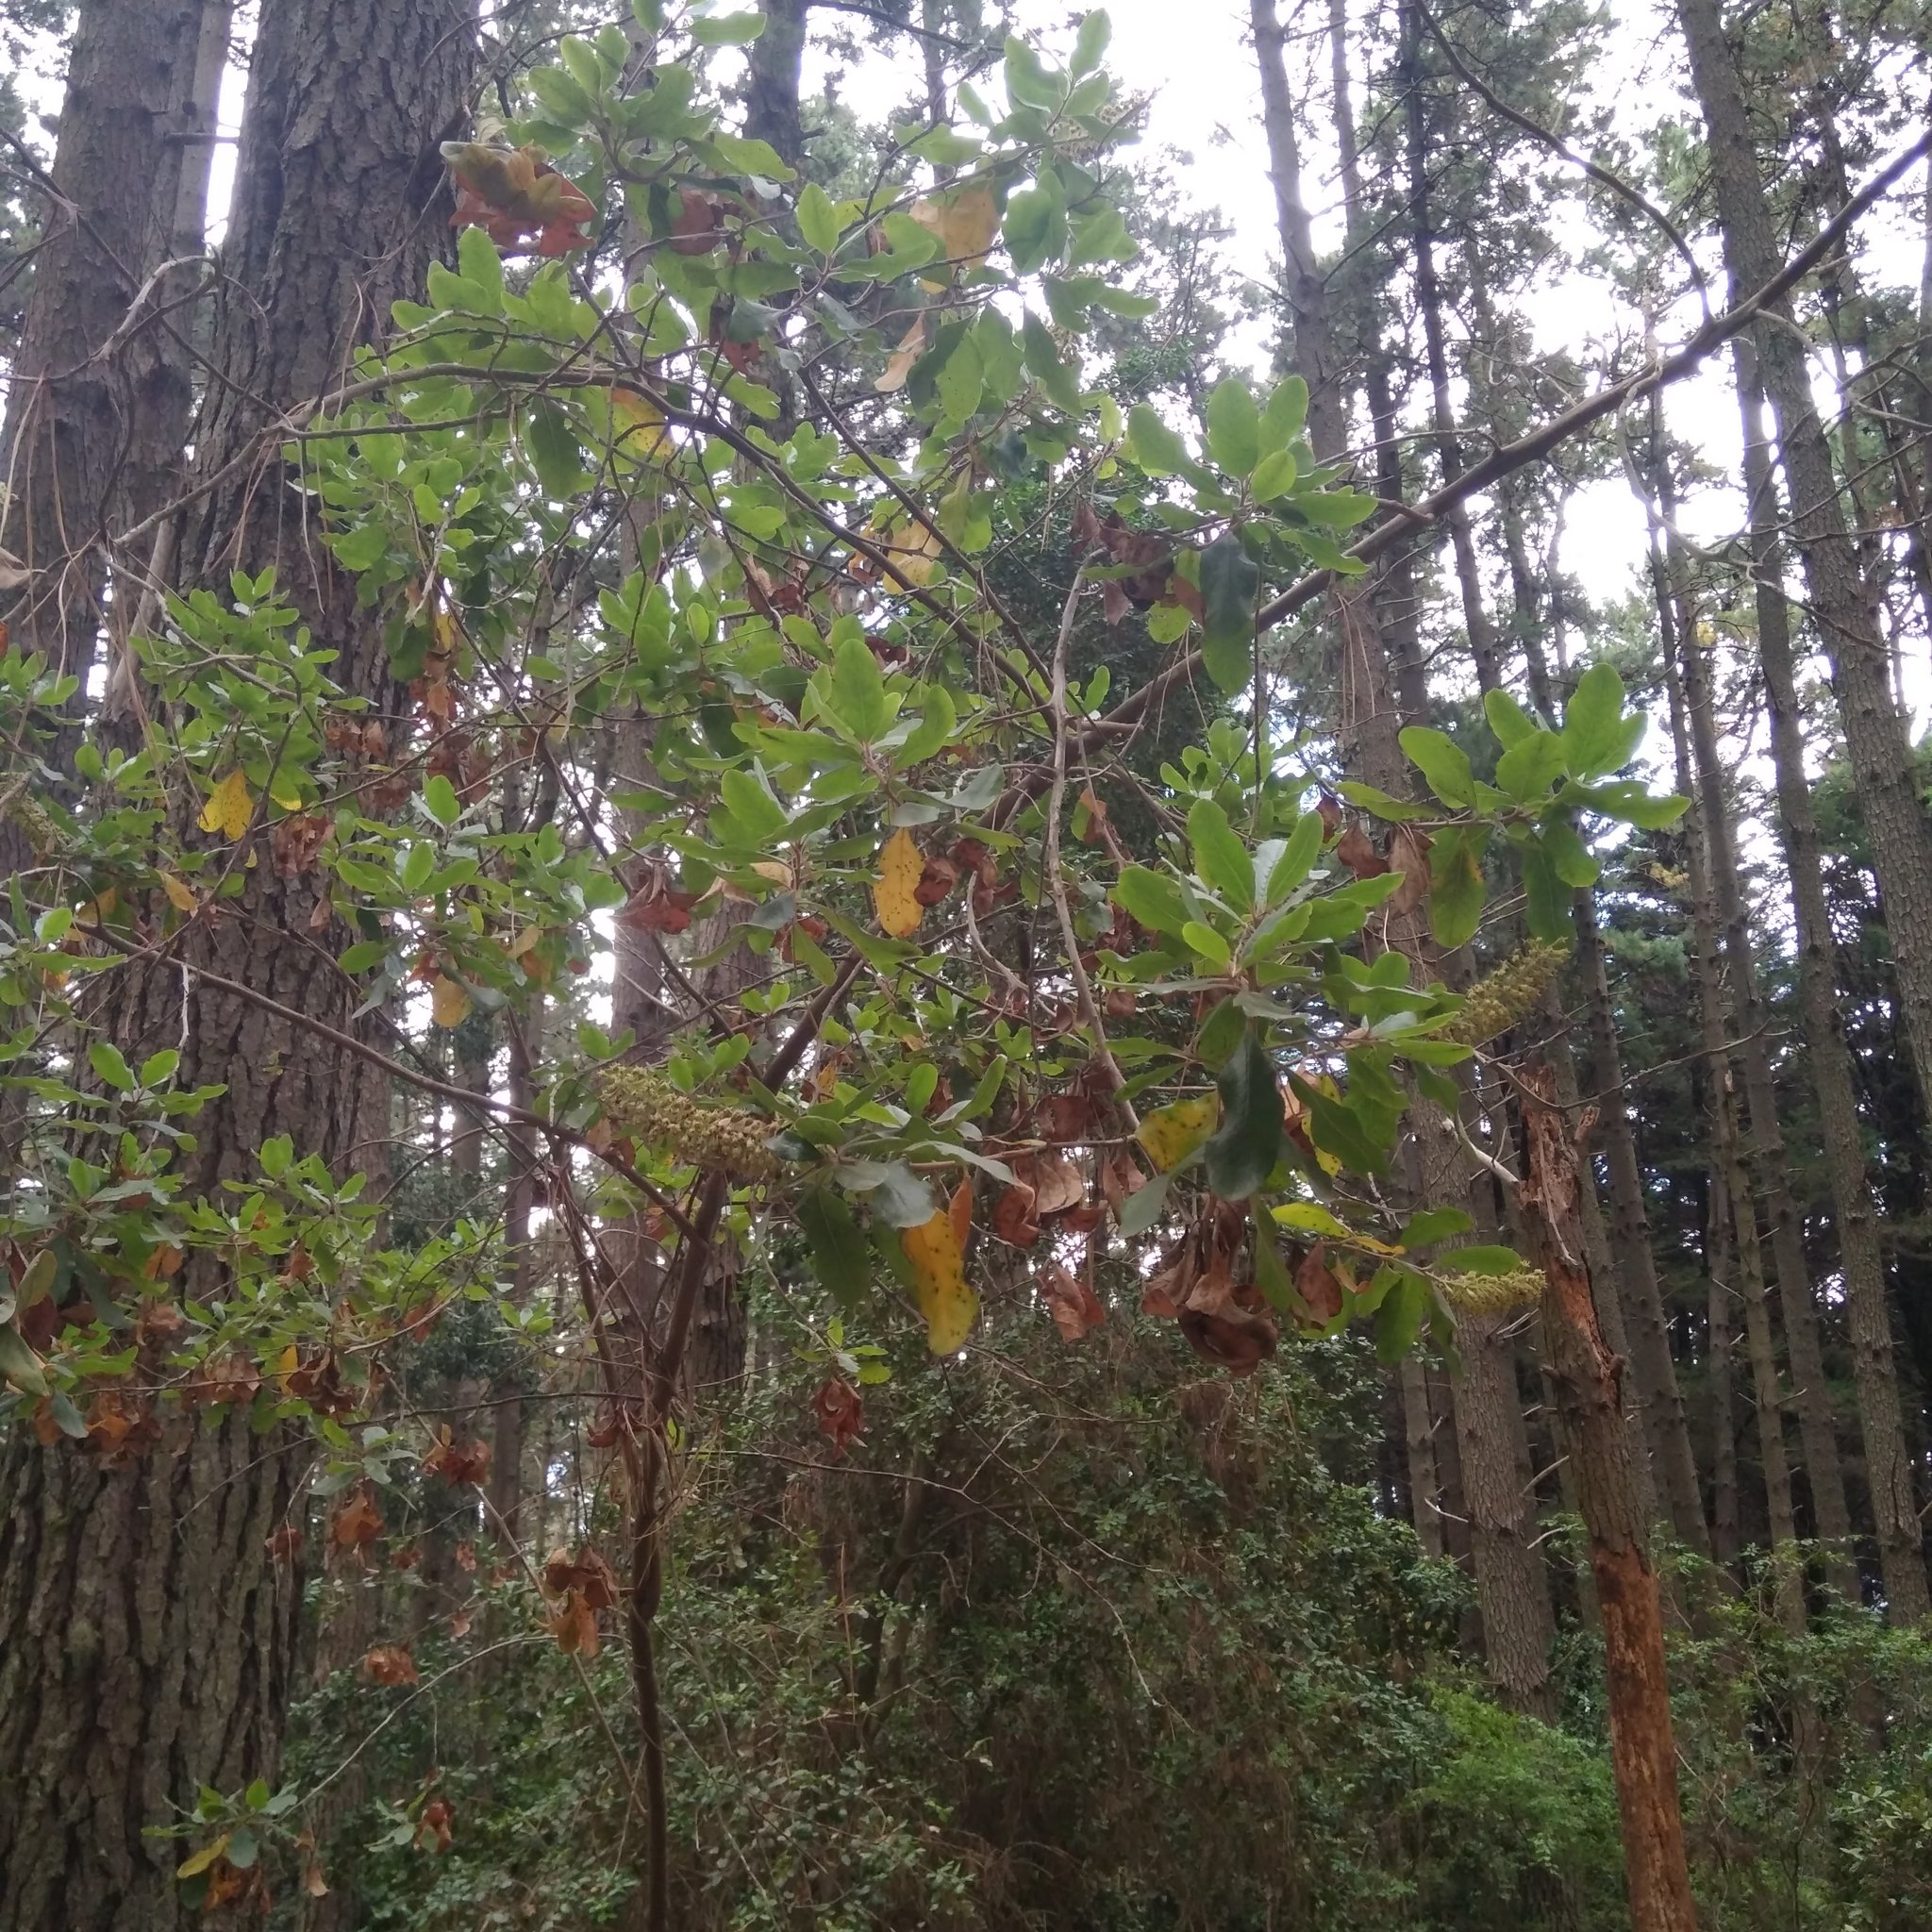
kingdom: Plantae
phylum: Tracheophyta
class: Magnoliopsida
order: Escalloniales
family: Escalloniaceae
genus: Escallonia
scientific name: Escallonia pulverulenta
